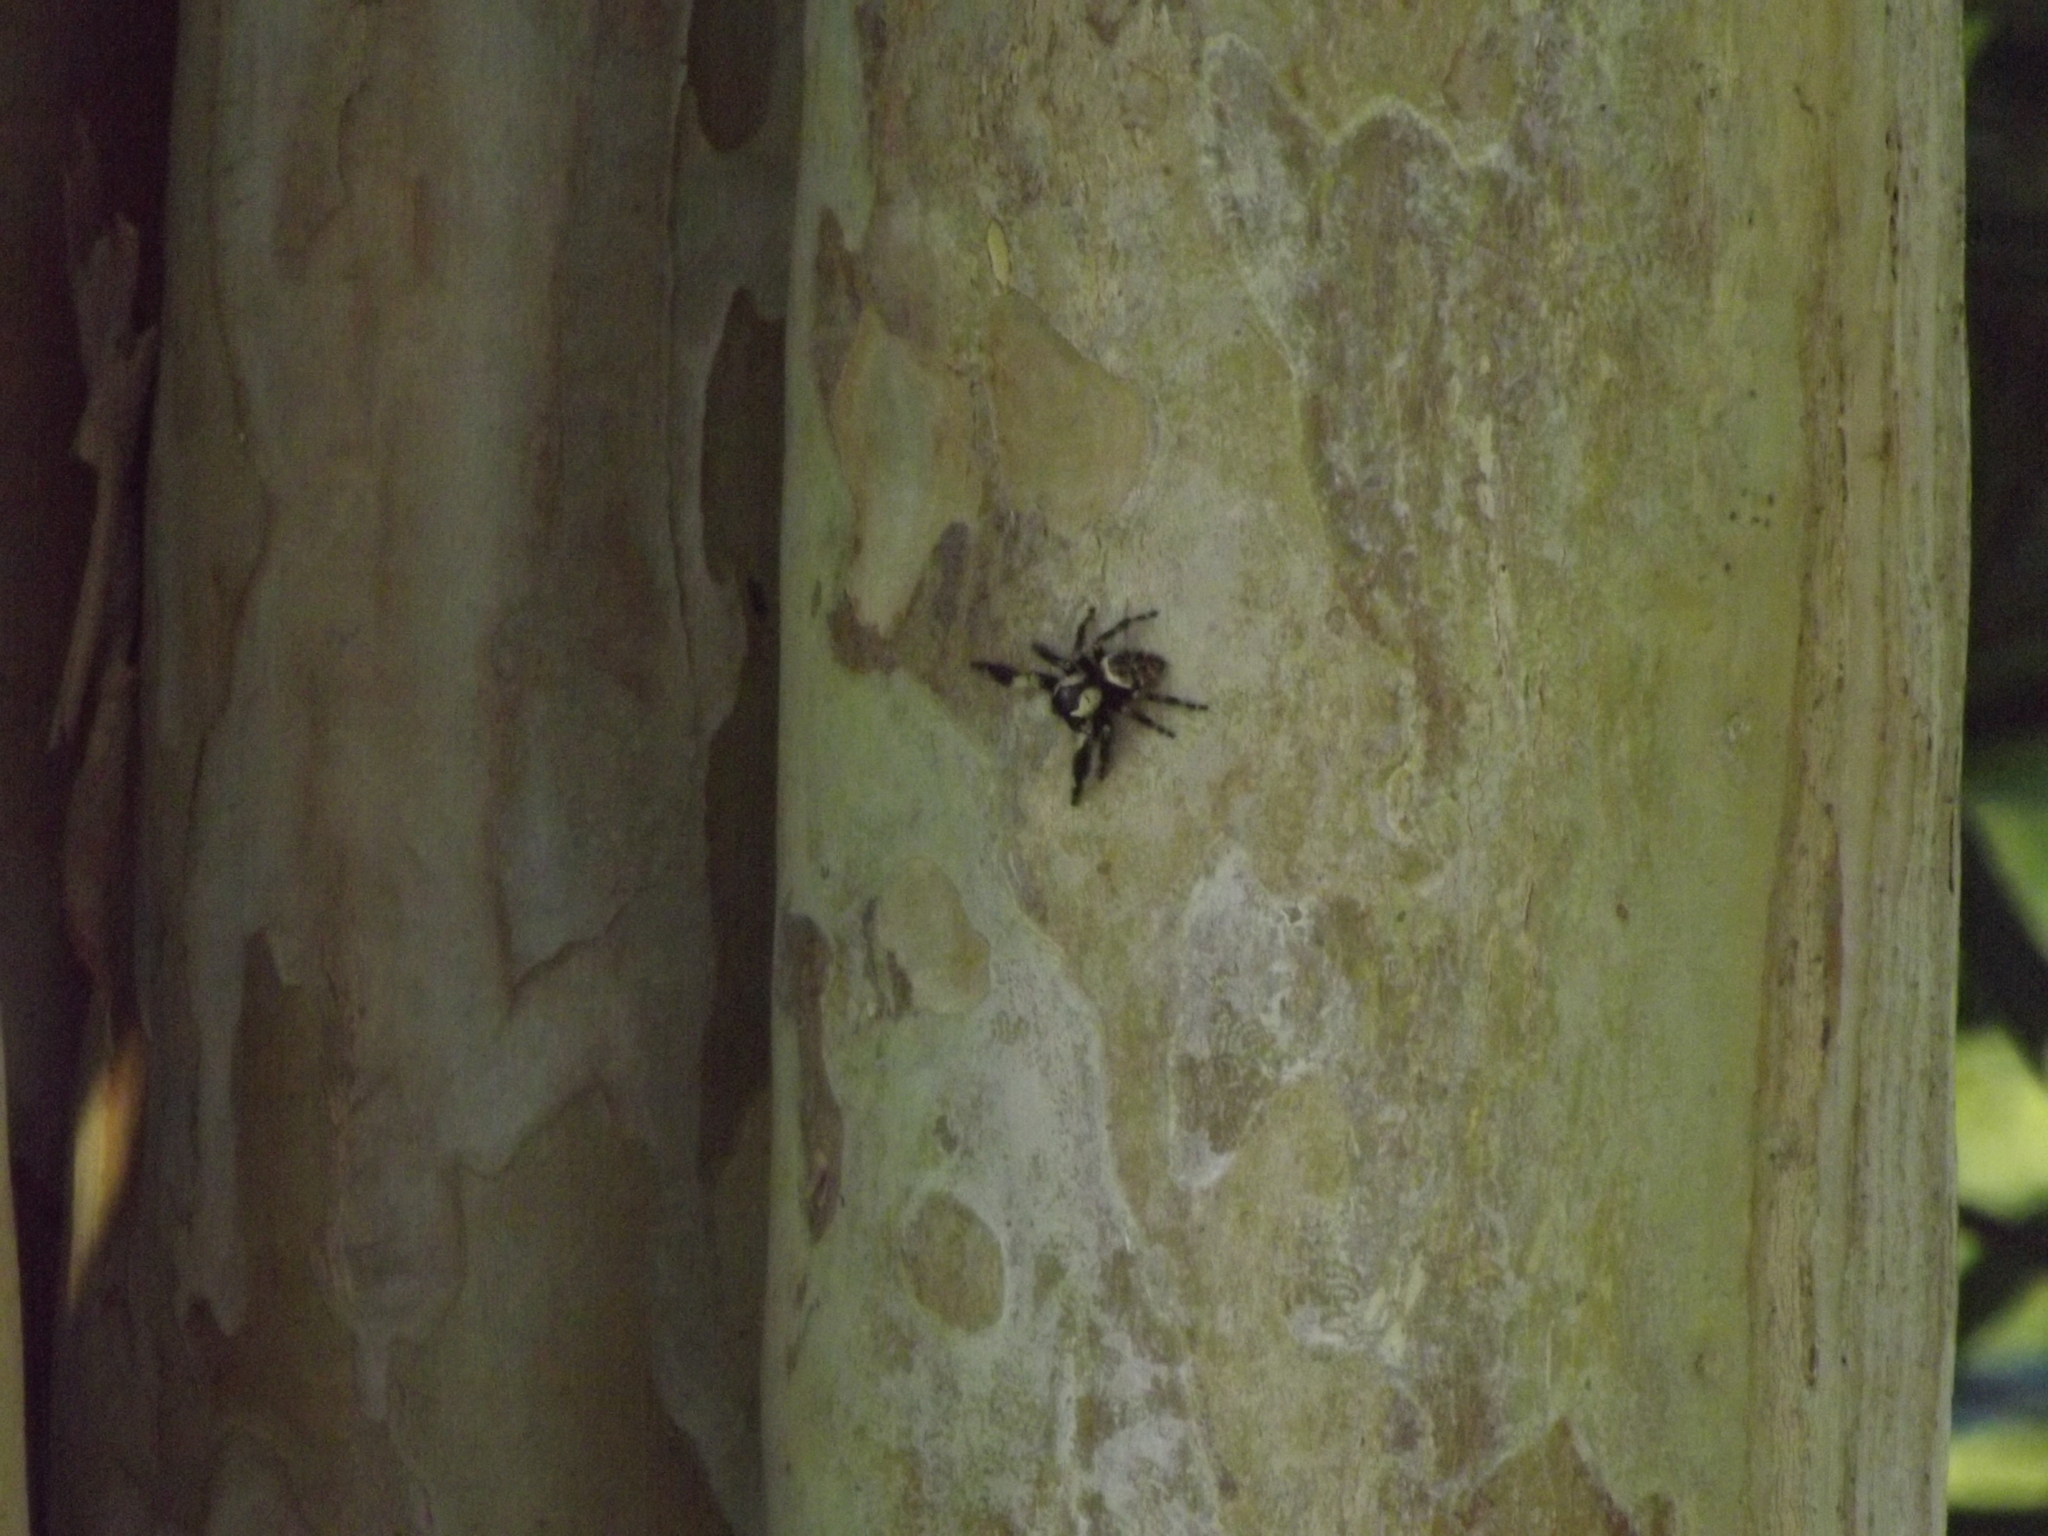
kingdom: Animalia
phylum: Arthropoda
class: Arachnida
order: Araneae
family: Salticidae
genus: Phidippus
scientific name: Phidippus otiosus
